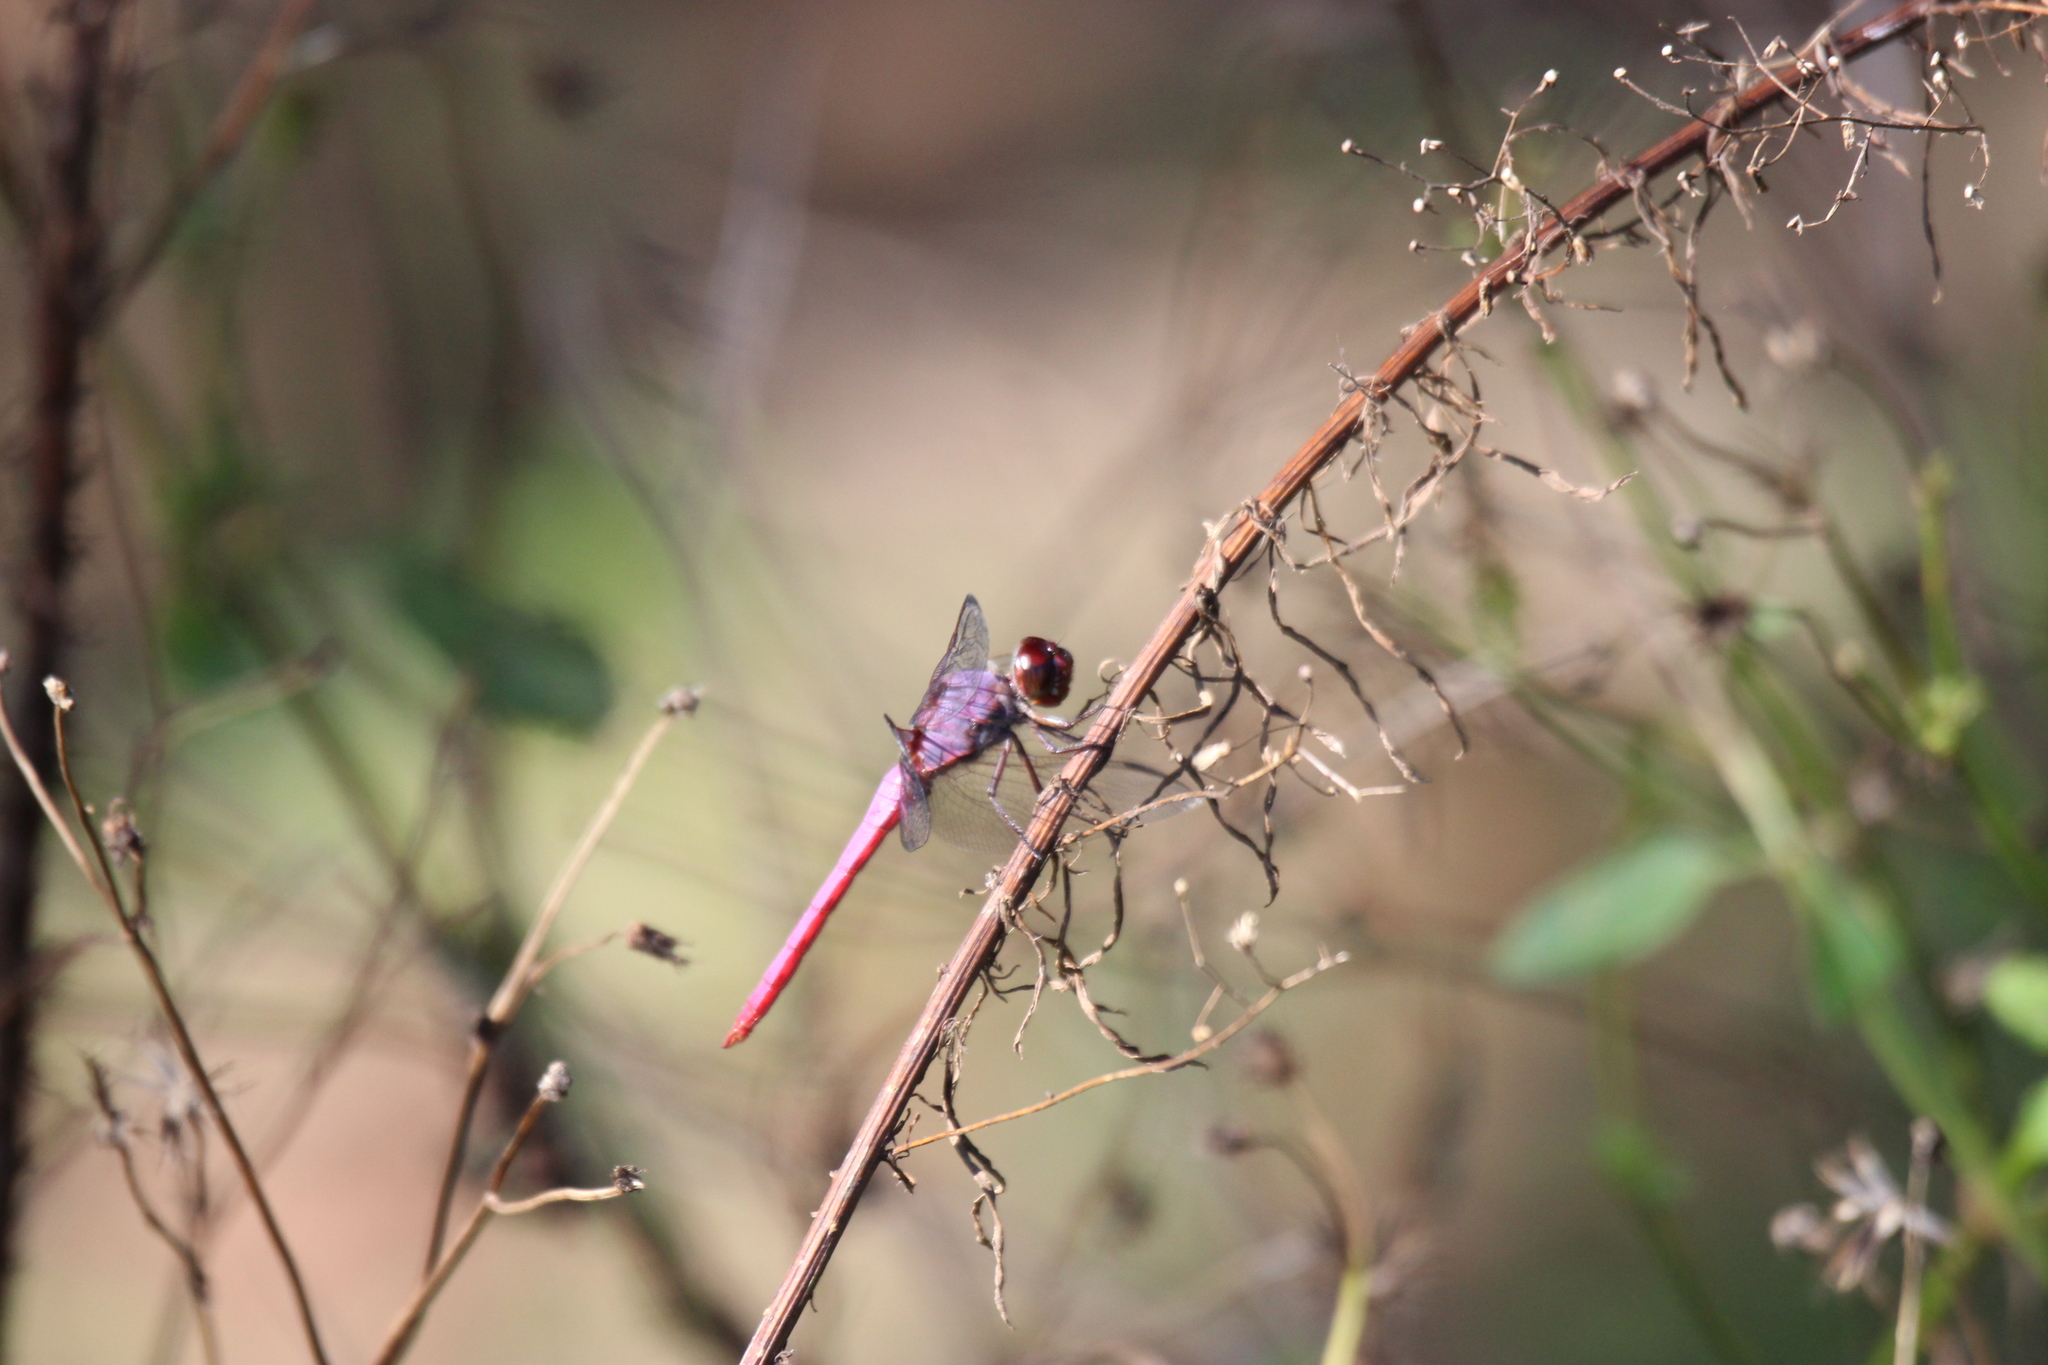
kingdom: Animalia
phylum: Arthropoda
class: Insecta
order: Odonata
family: Libellulidae
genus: Orthemis
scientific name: Orthemis ferruginea
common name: Roseate skimmer
